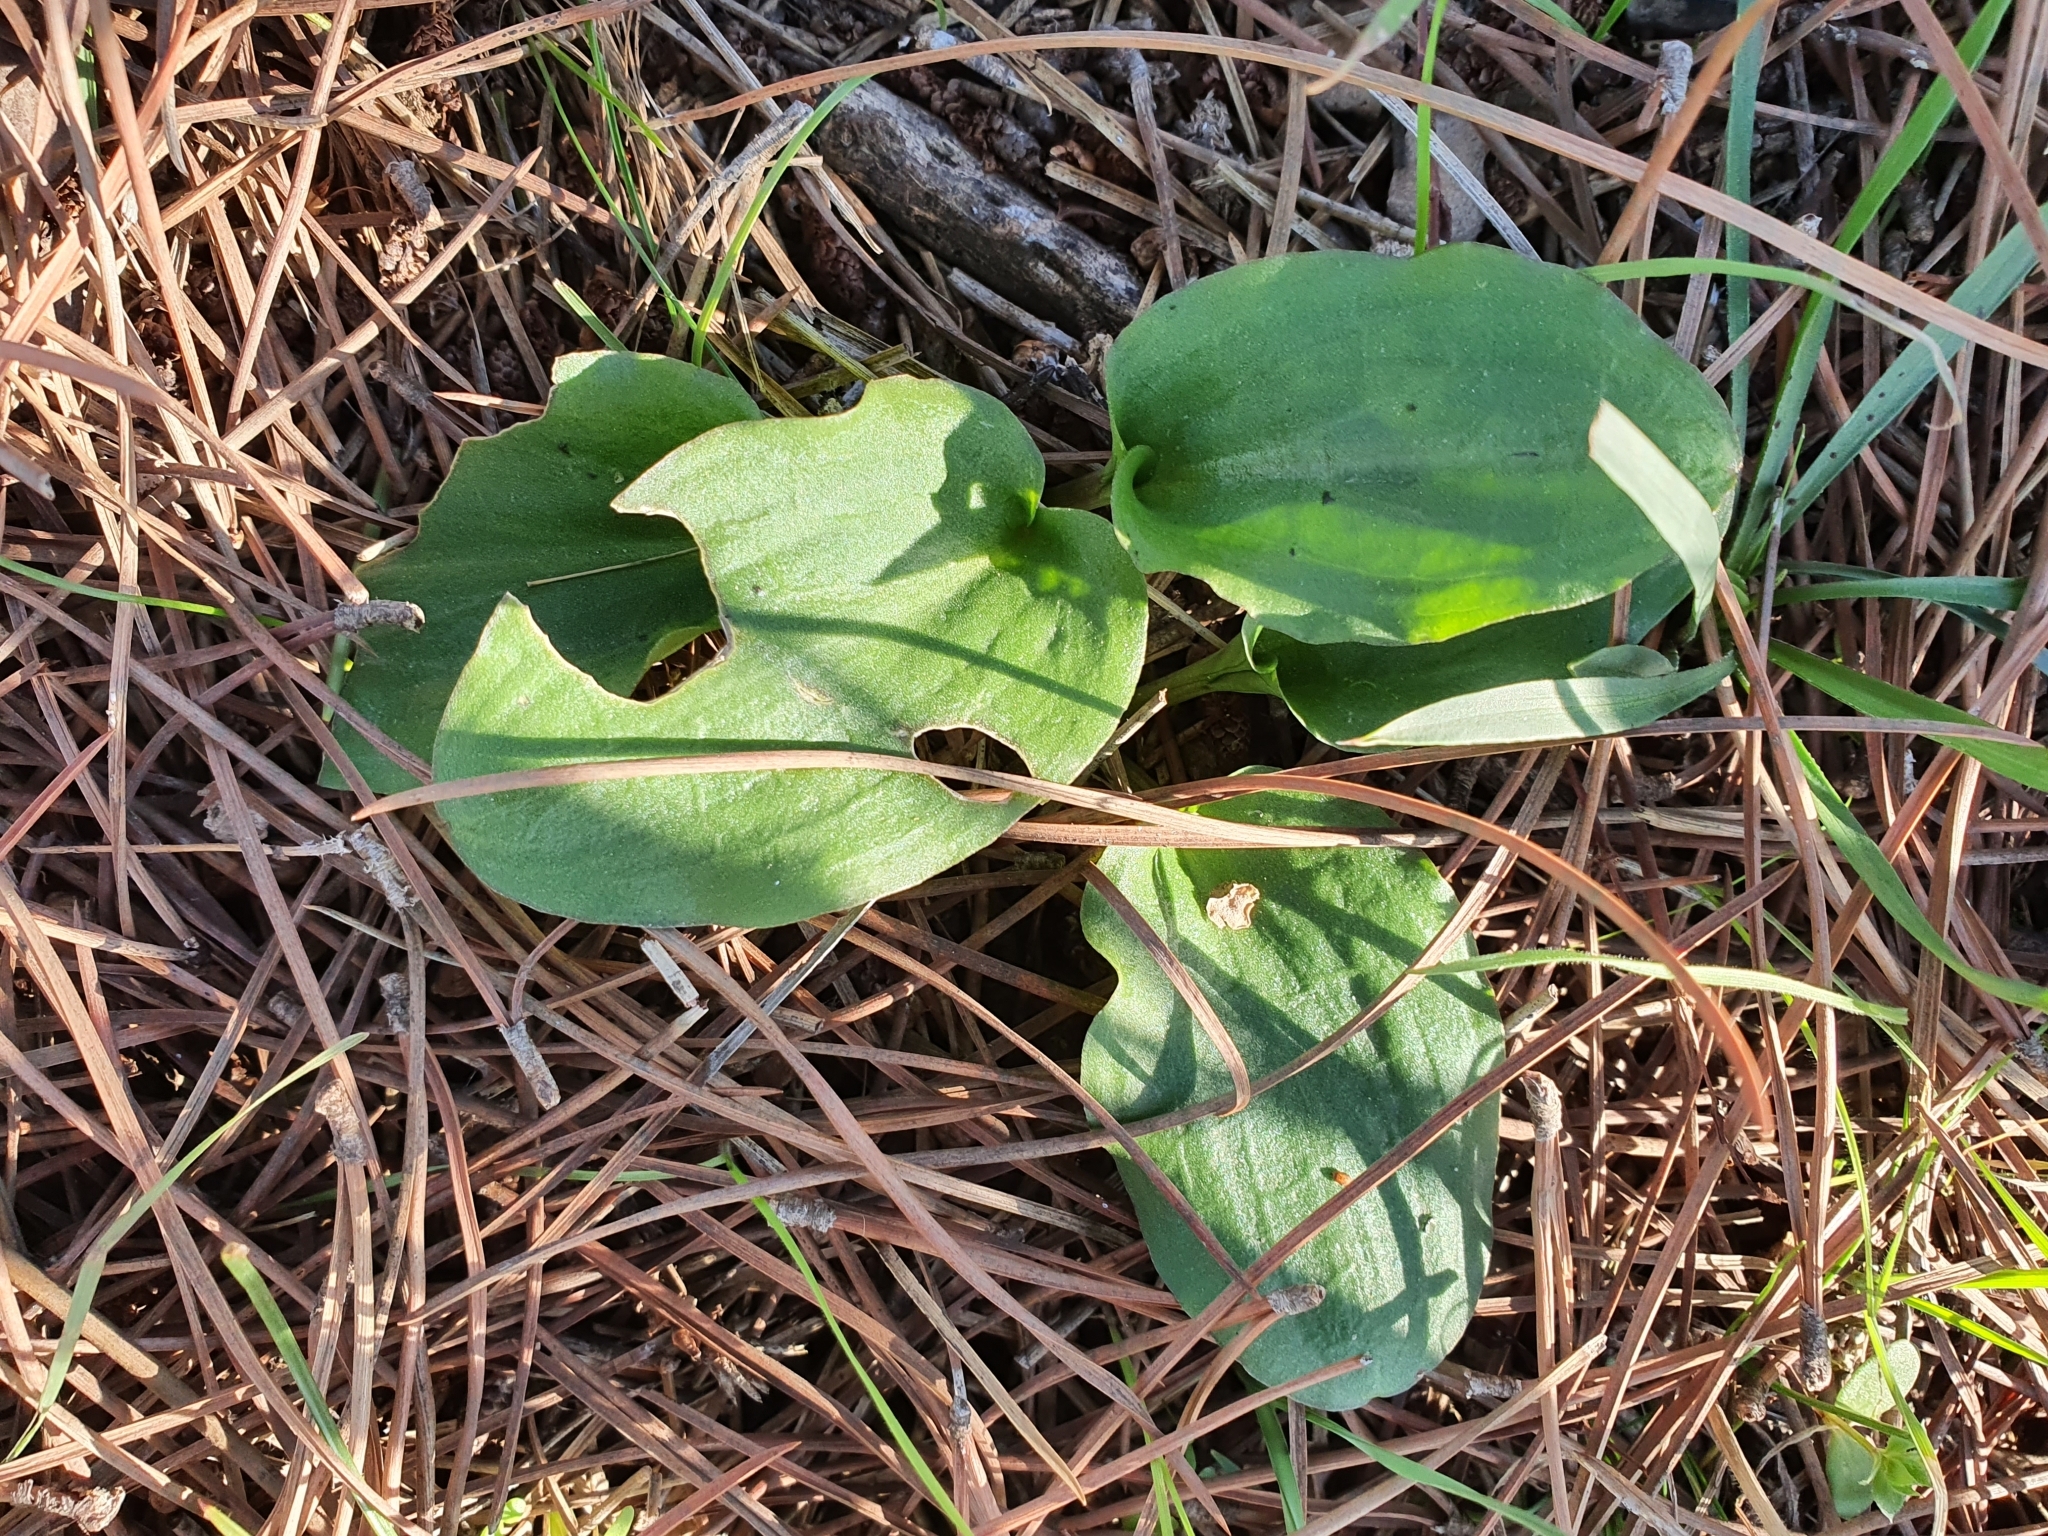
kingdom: Plantae
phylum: Tracheophyta
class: Liliopsida
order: Alismatales
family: Araceae
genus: Ambrosina
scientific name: Ambrosina bassii
